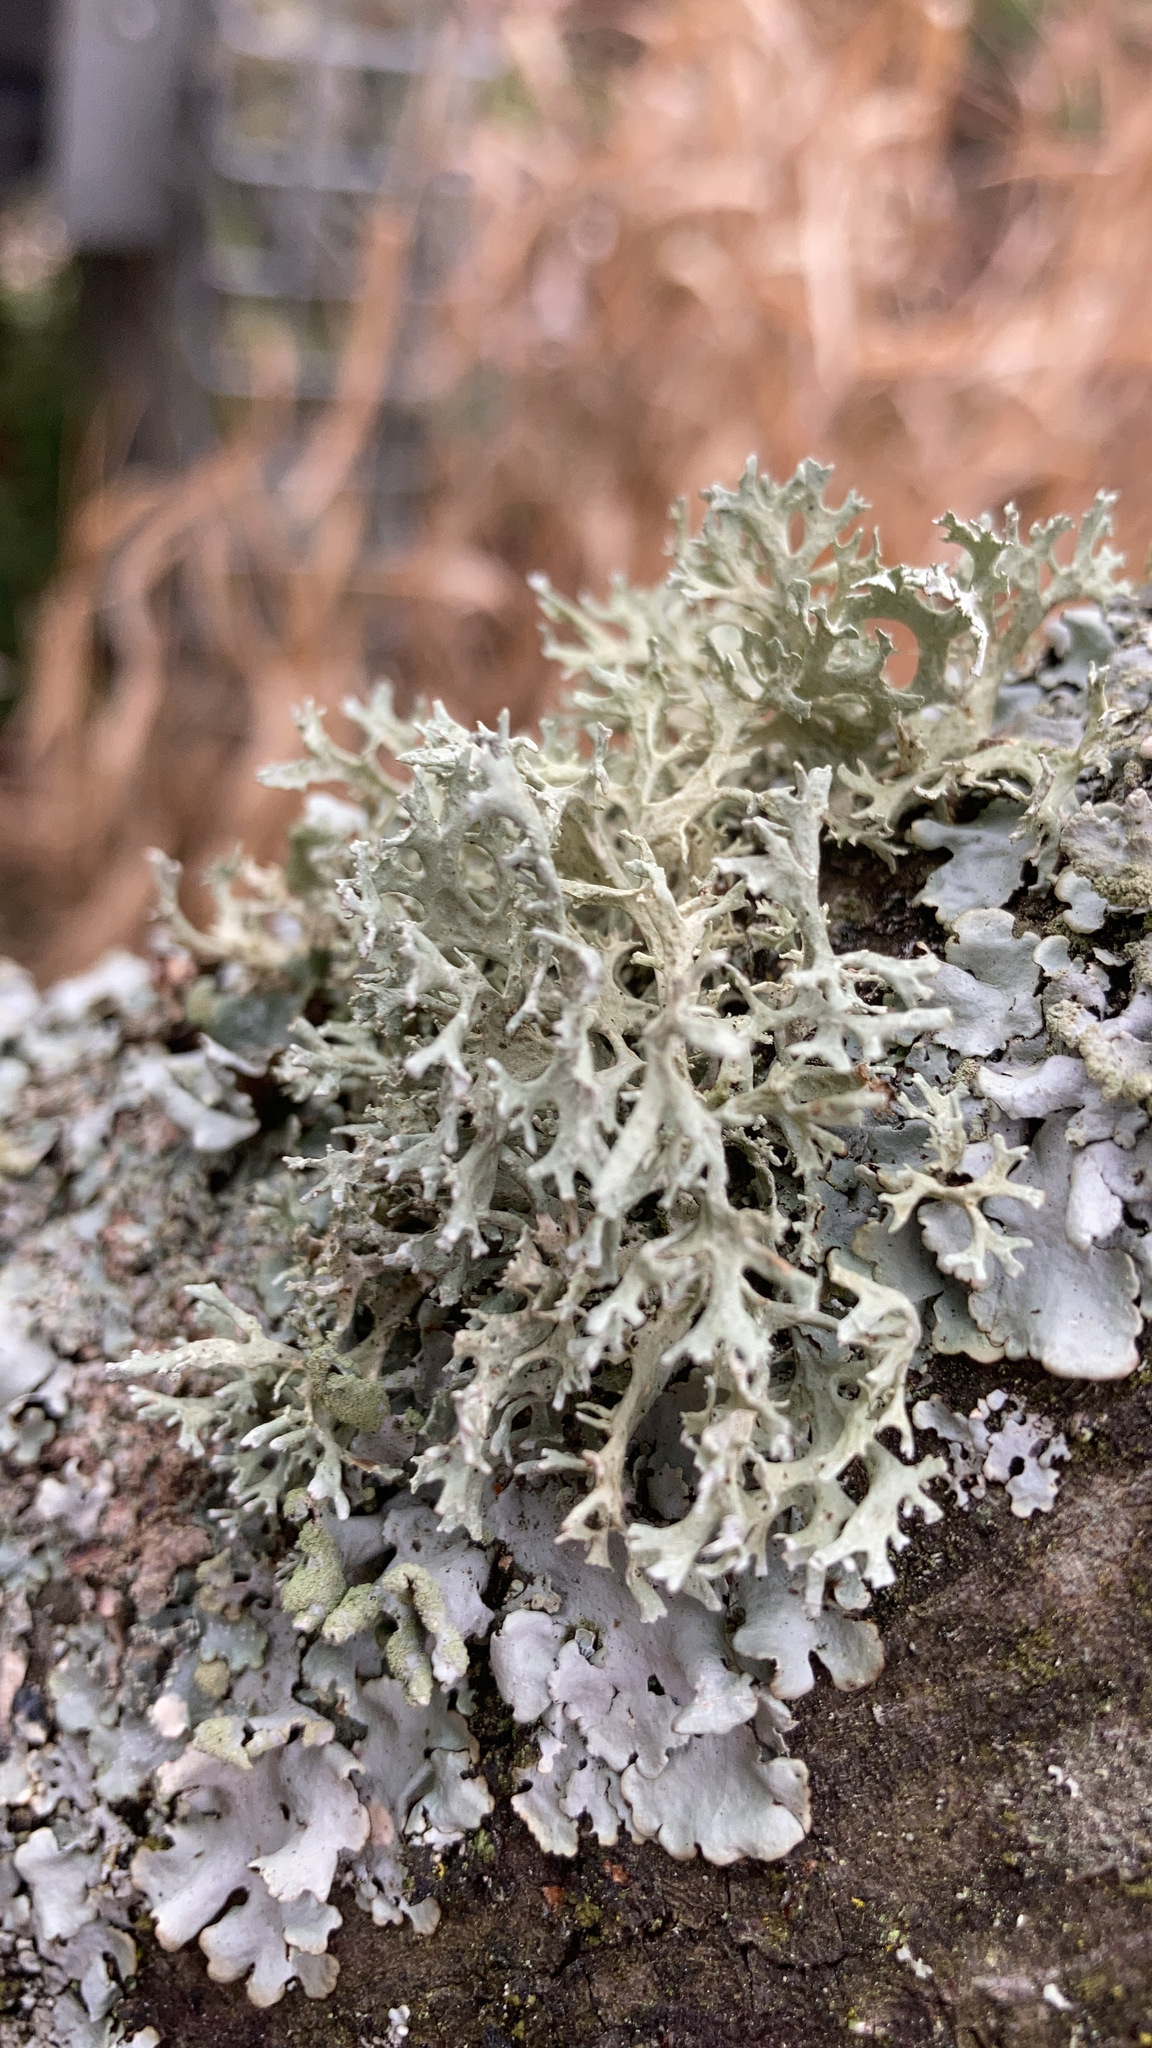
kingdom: Fungi
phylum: Ascomycota
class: Lecanoromycetes
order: Lecanorales
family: Parmeliaceae
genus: Evernia
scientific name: Evernia prunastri
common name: Oak moss
